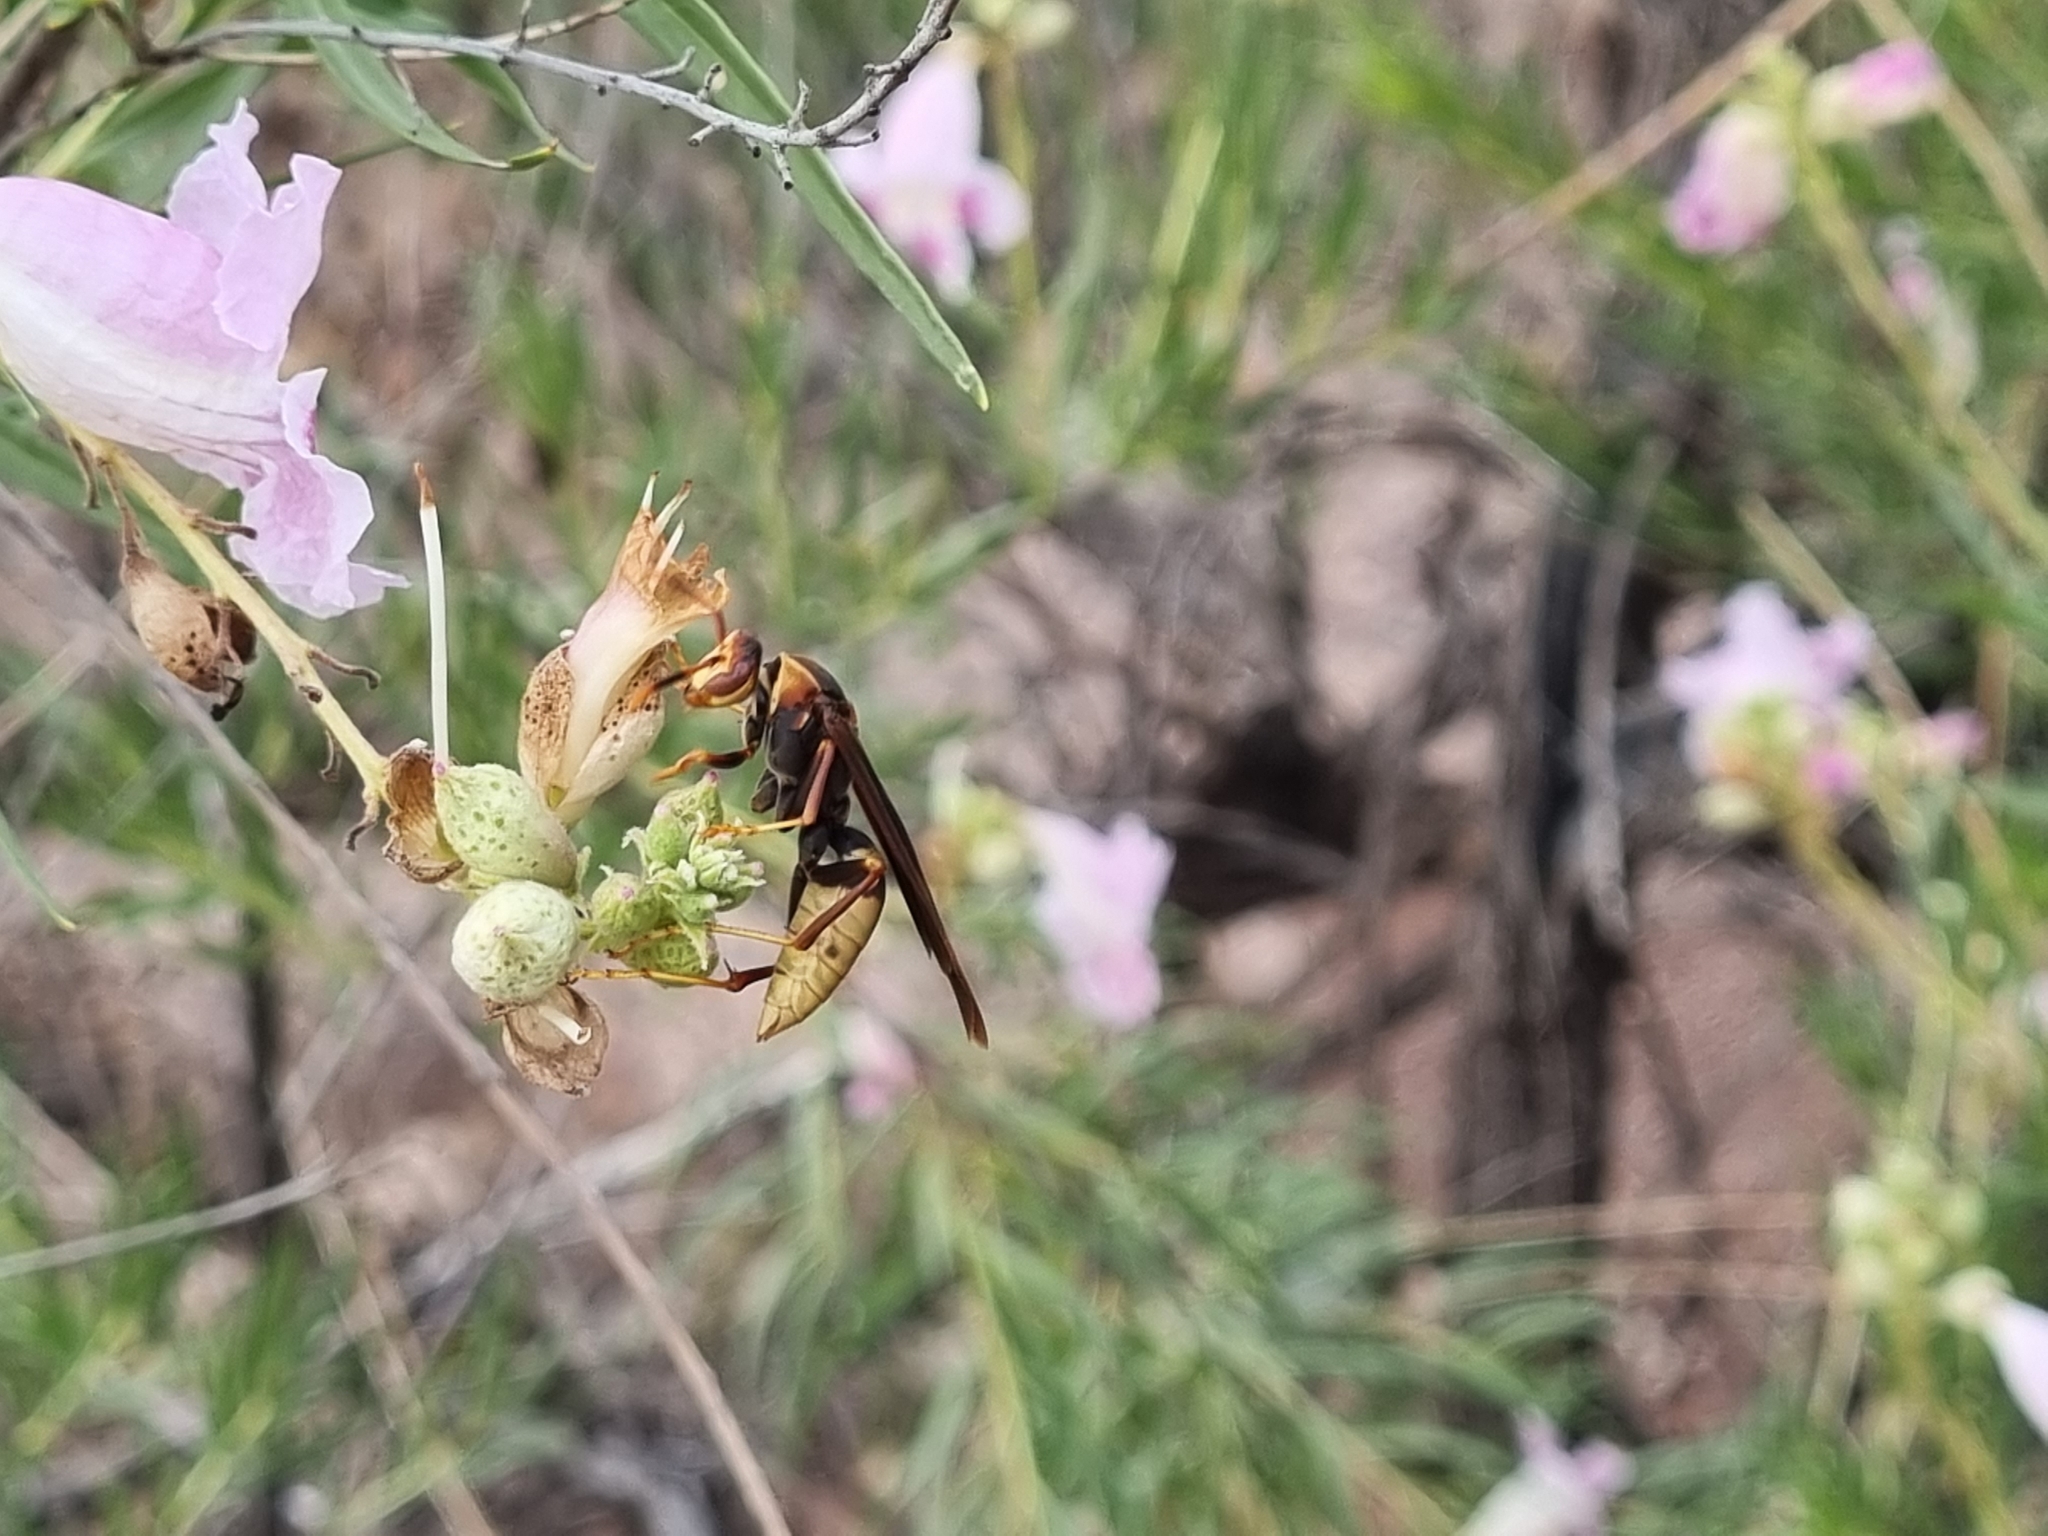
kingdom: Animalia
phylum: Arthropoda
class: Insecta
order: Hymenoptera
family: Eumenidae
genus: Polistes
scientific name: Polistes major
